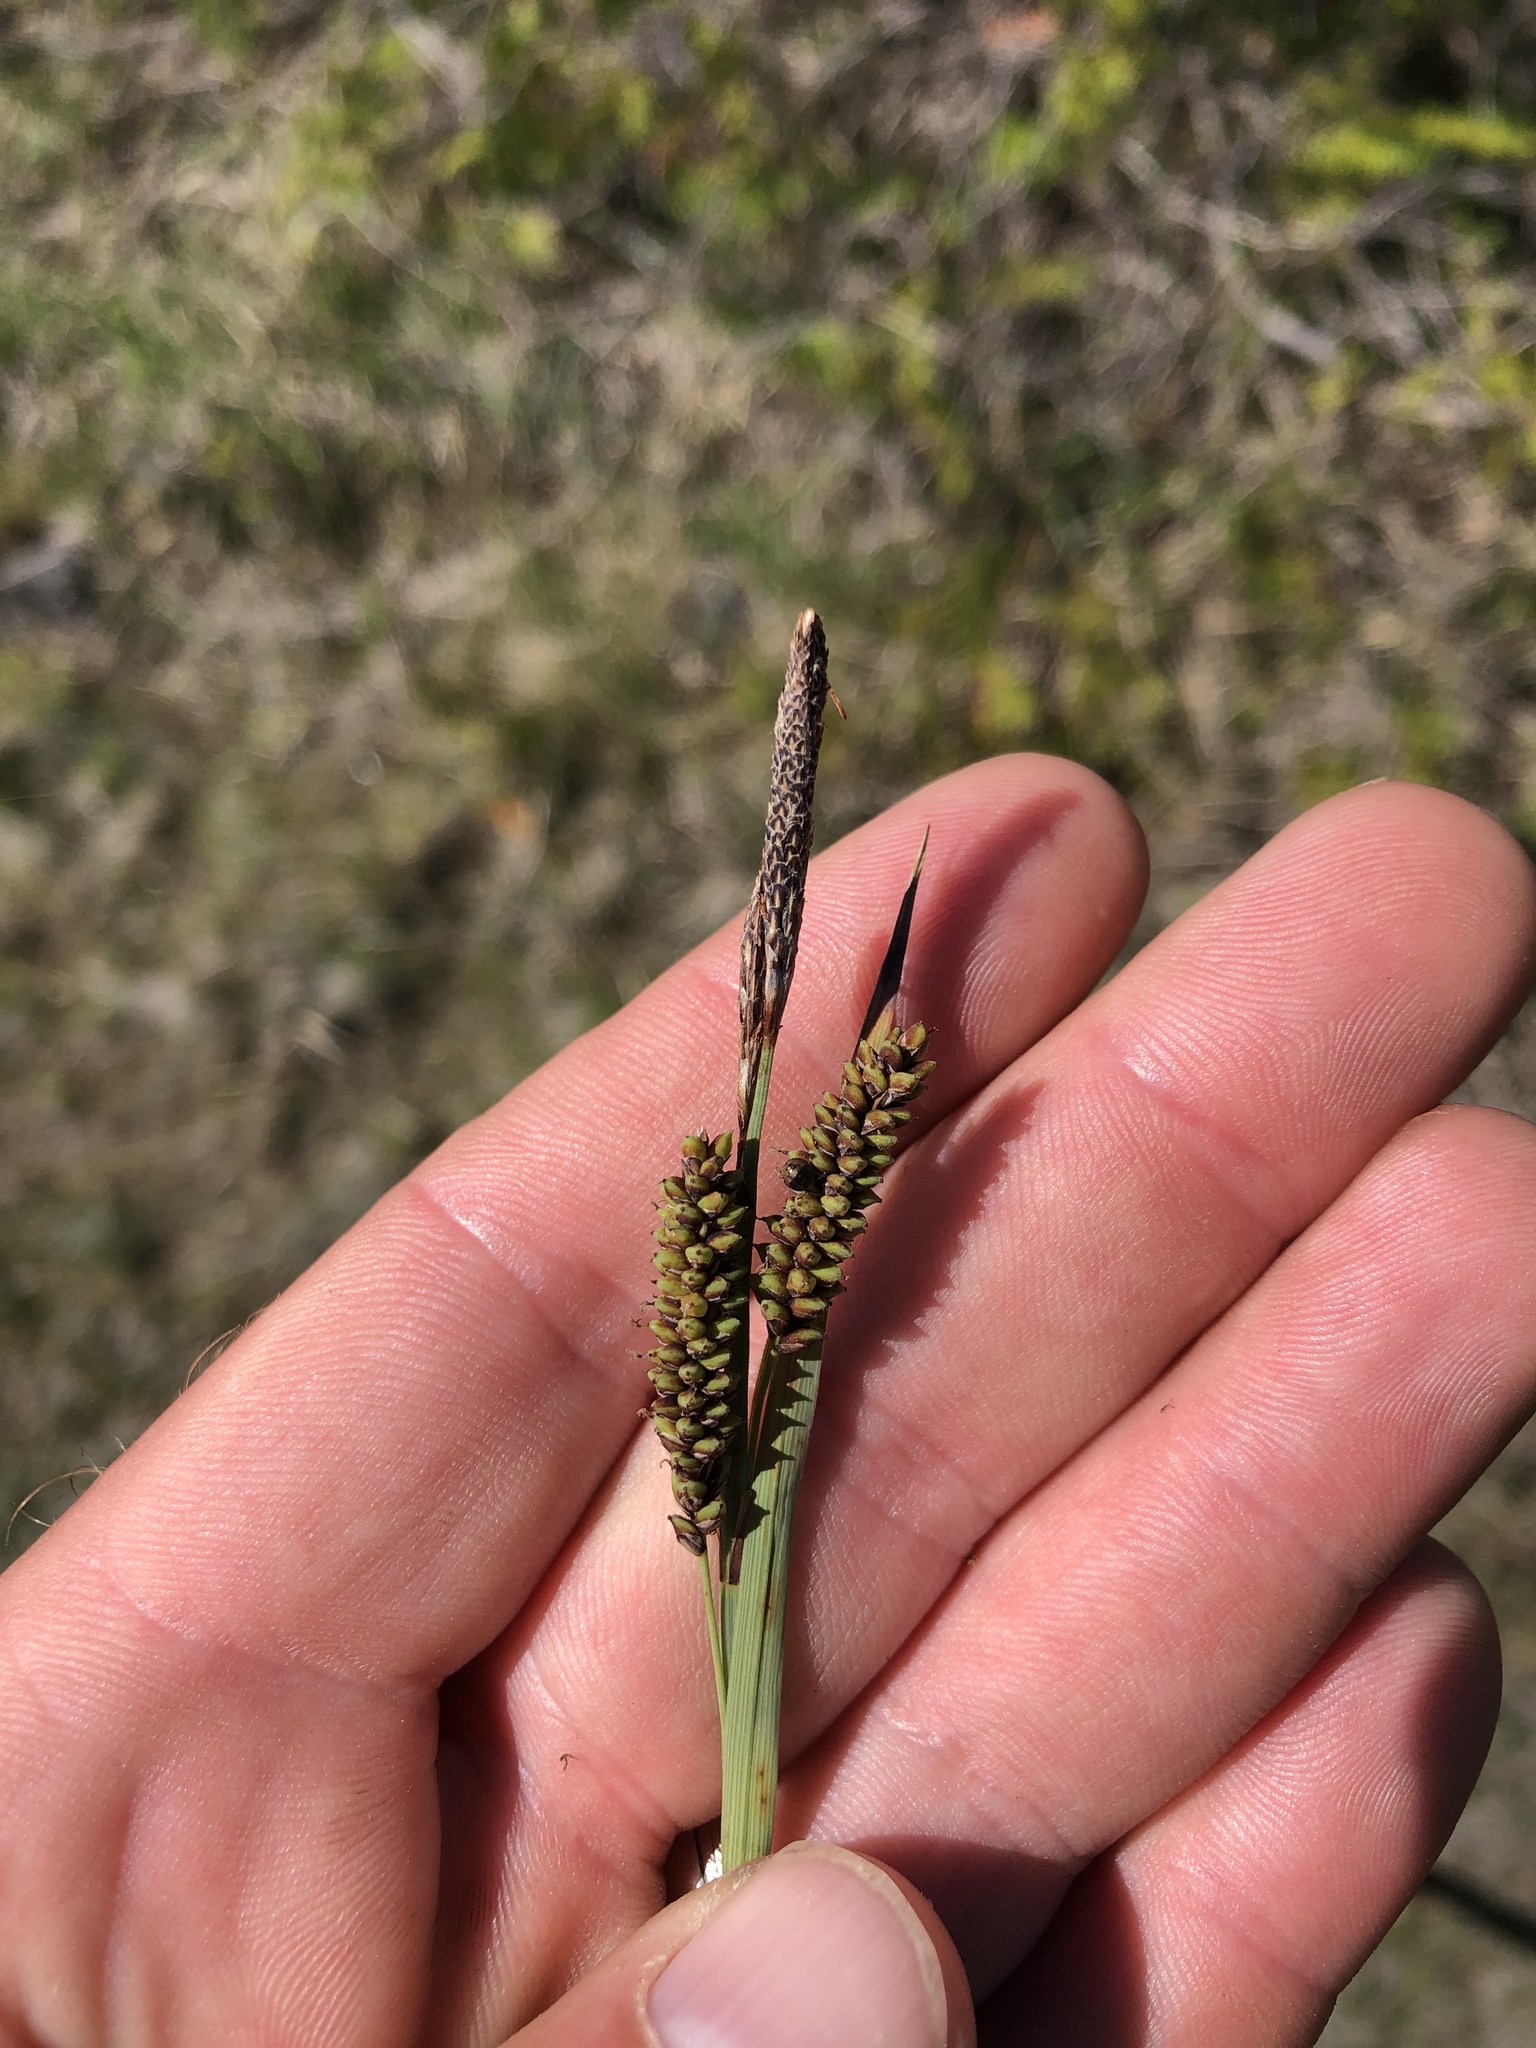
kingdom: Plantae
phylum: Tracheophyta
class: Liliopsida
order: Poales
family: Cyperaceae
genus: Carex
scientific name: Carex flacca
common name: Glaucous sedge
